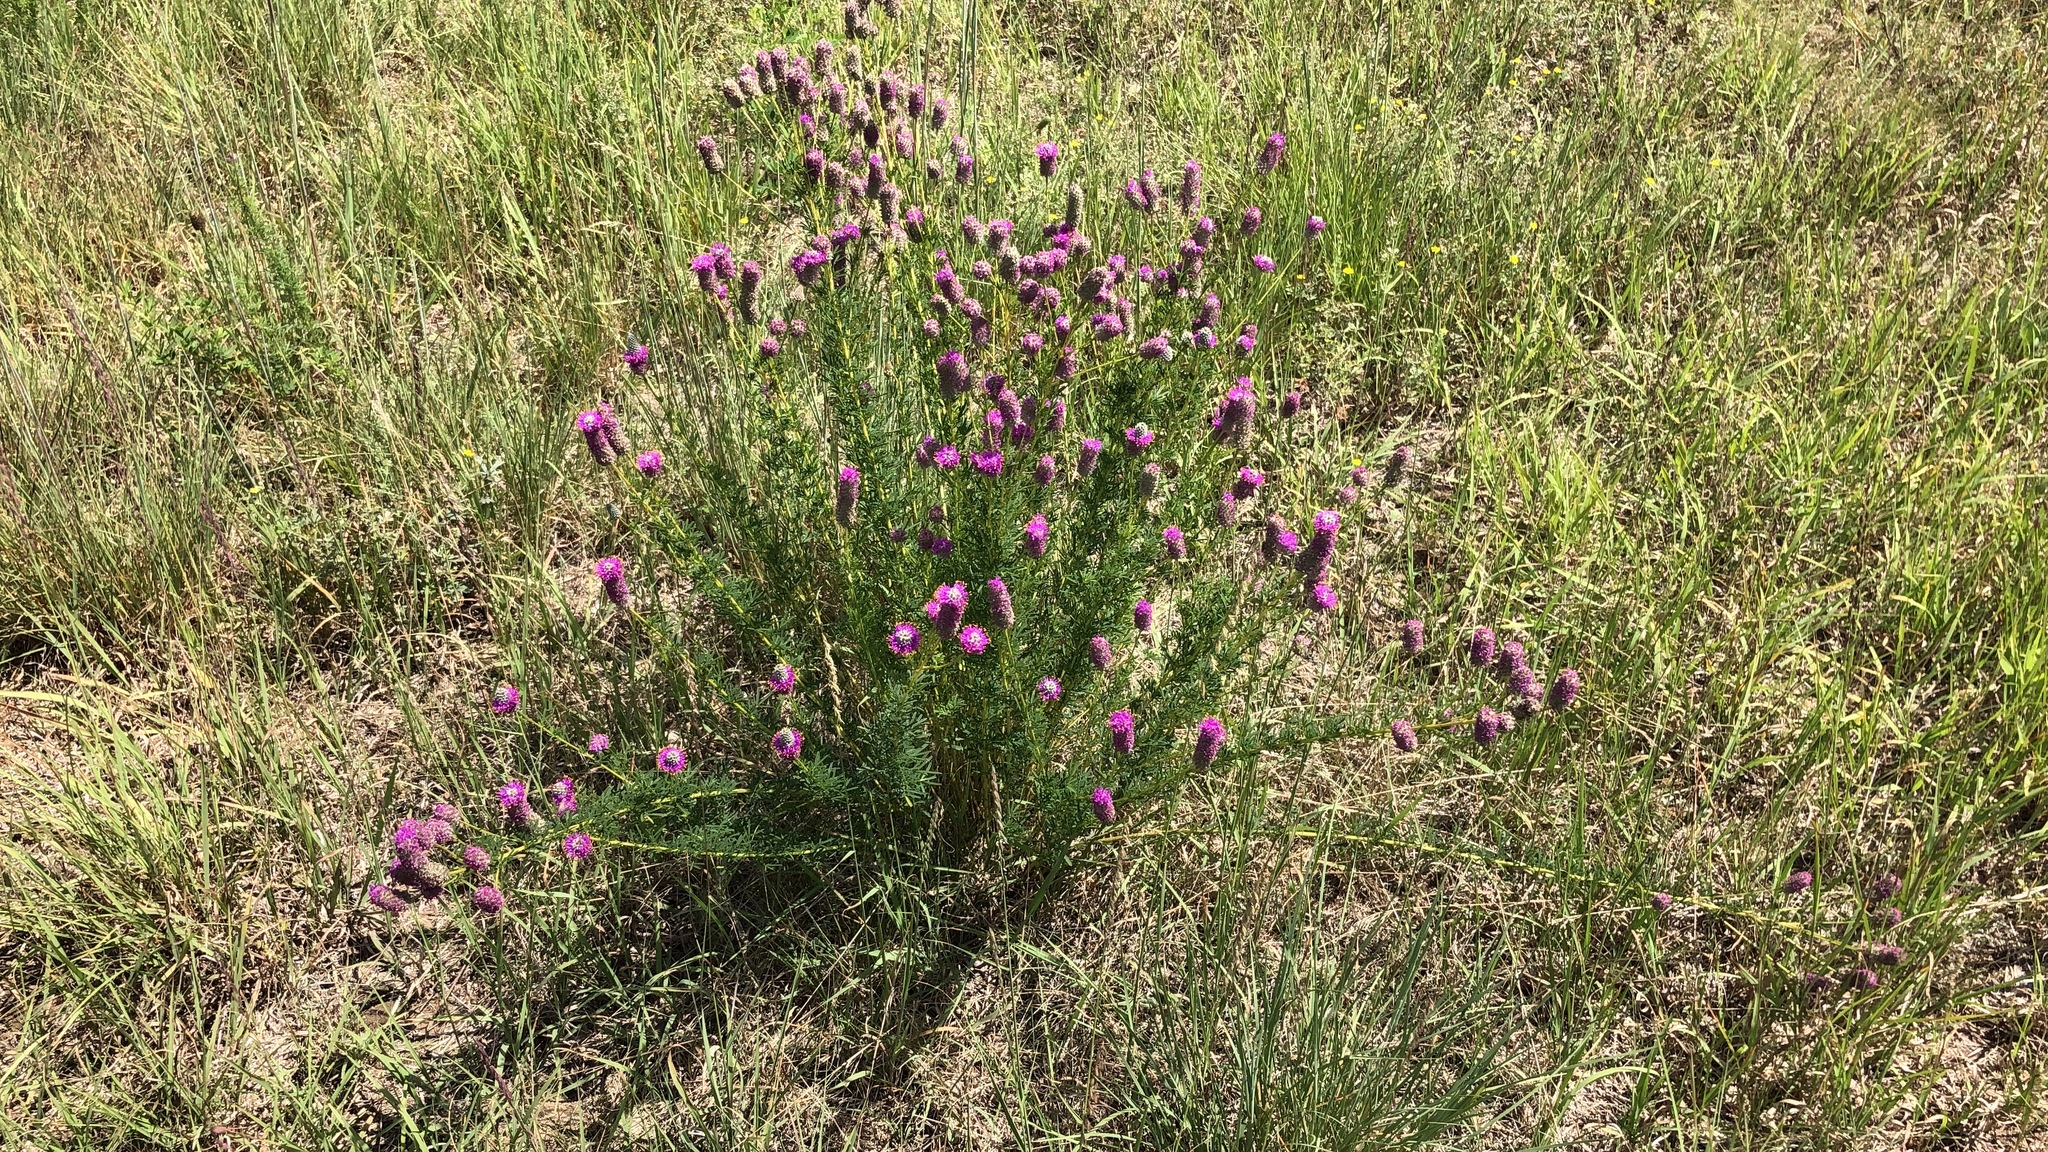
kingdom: Plantae
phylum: Tracheophyta
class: Magnoliopsida
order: Fabales
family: Fabaceae
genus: Dalea
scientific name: Dalea purpurea
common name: Purple prairie-clover
